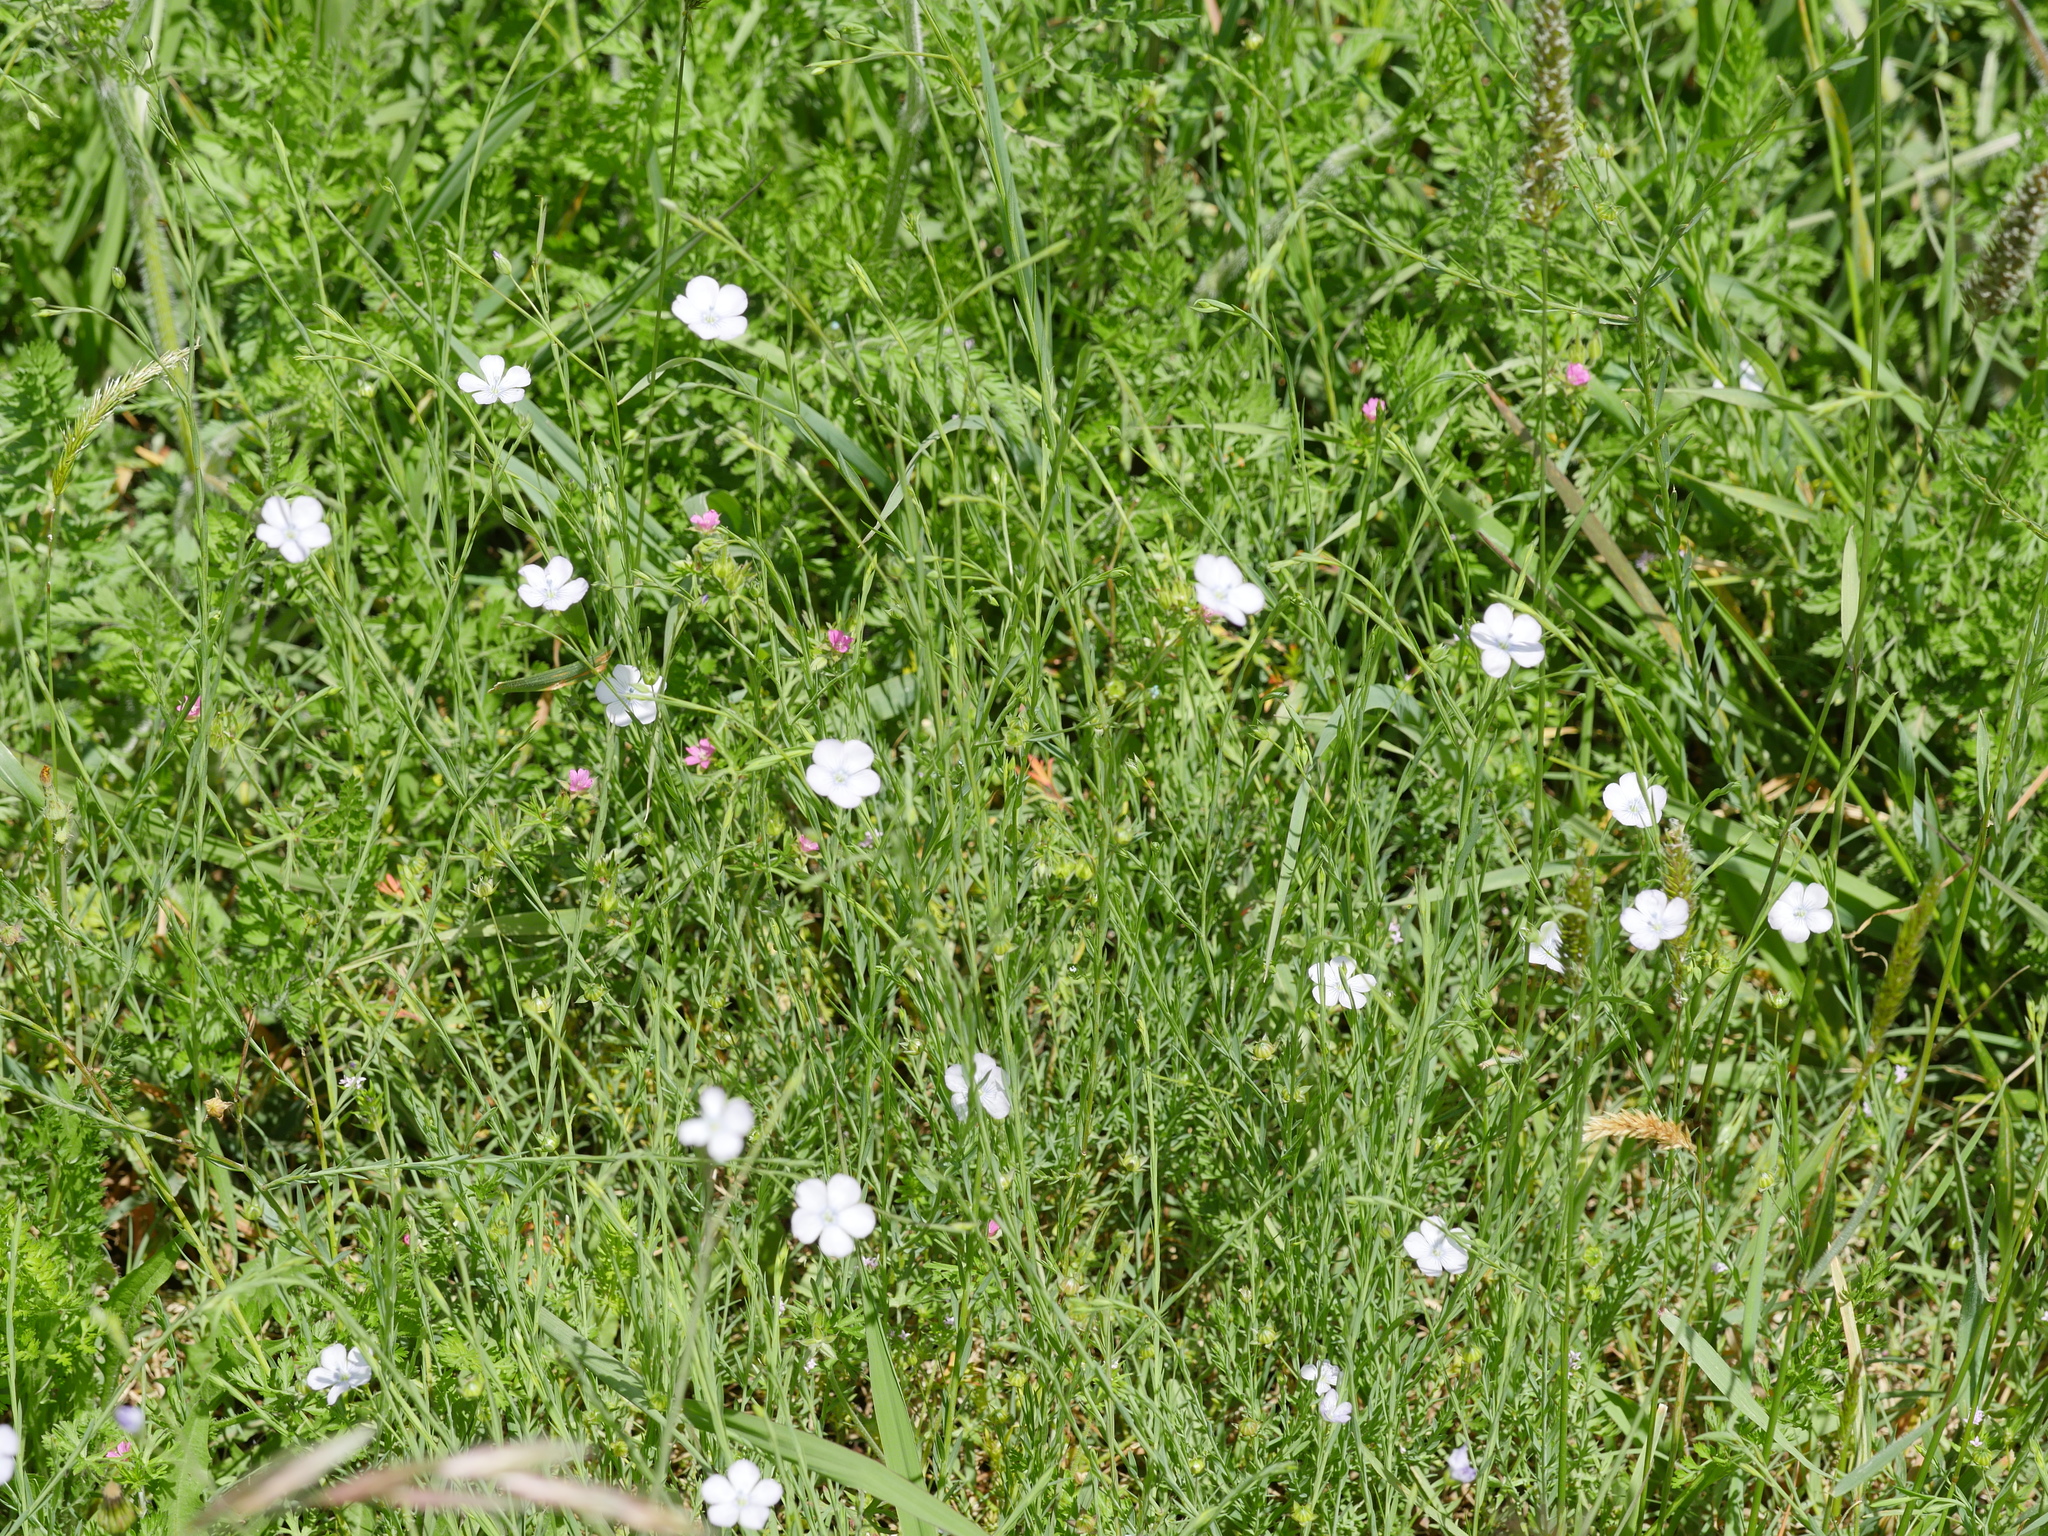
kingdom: Plantae
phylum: Tracheophyta
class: Magnoliopsida
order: Malpighiales
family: Linaceae
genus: Linum
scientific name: Linum bienne
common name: Pale flax
